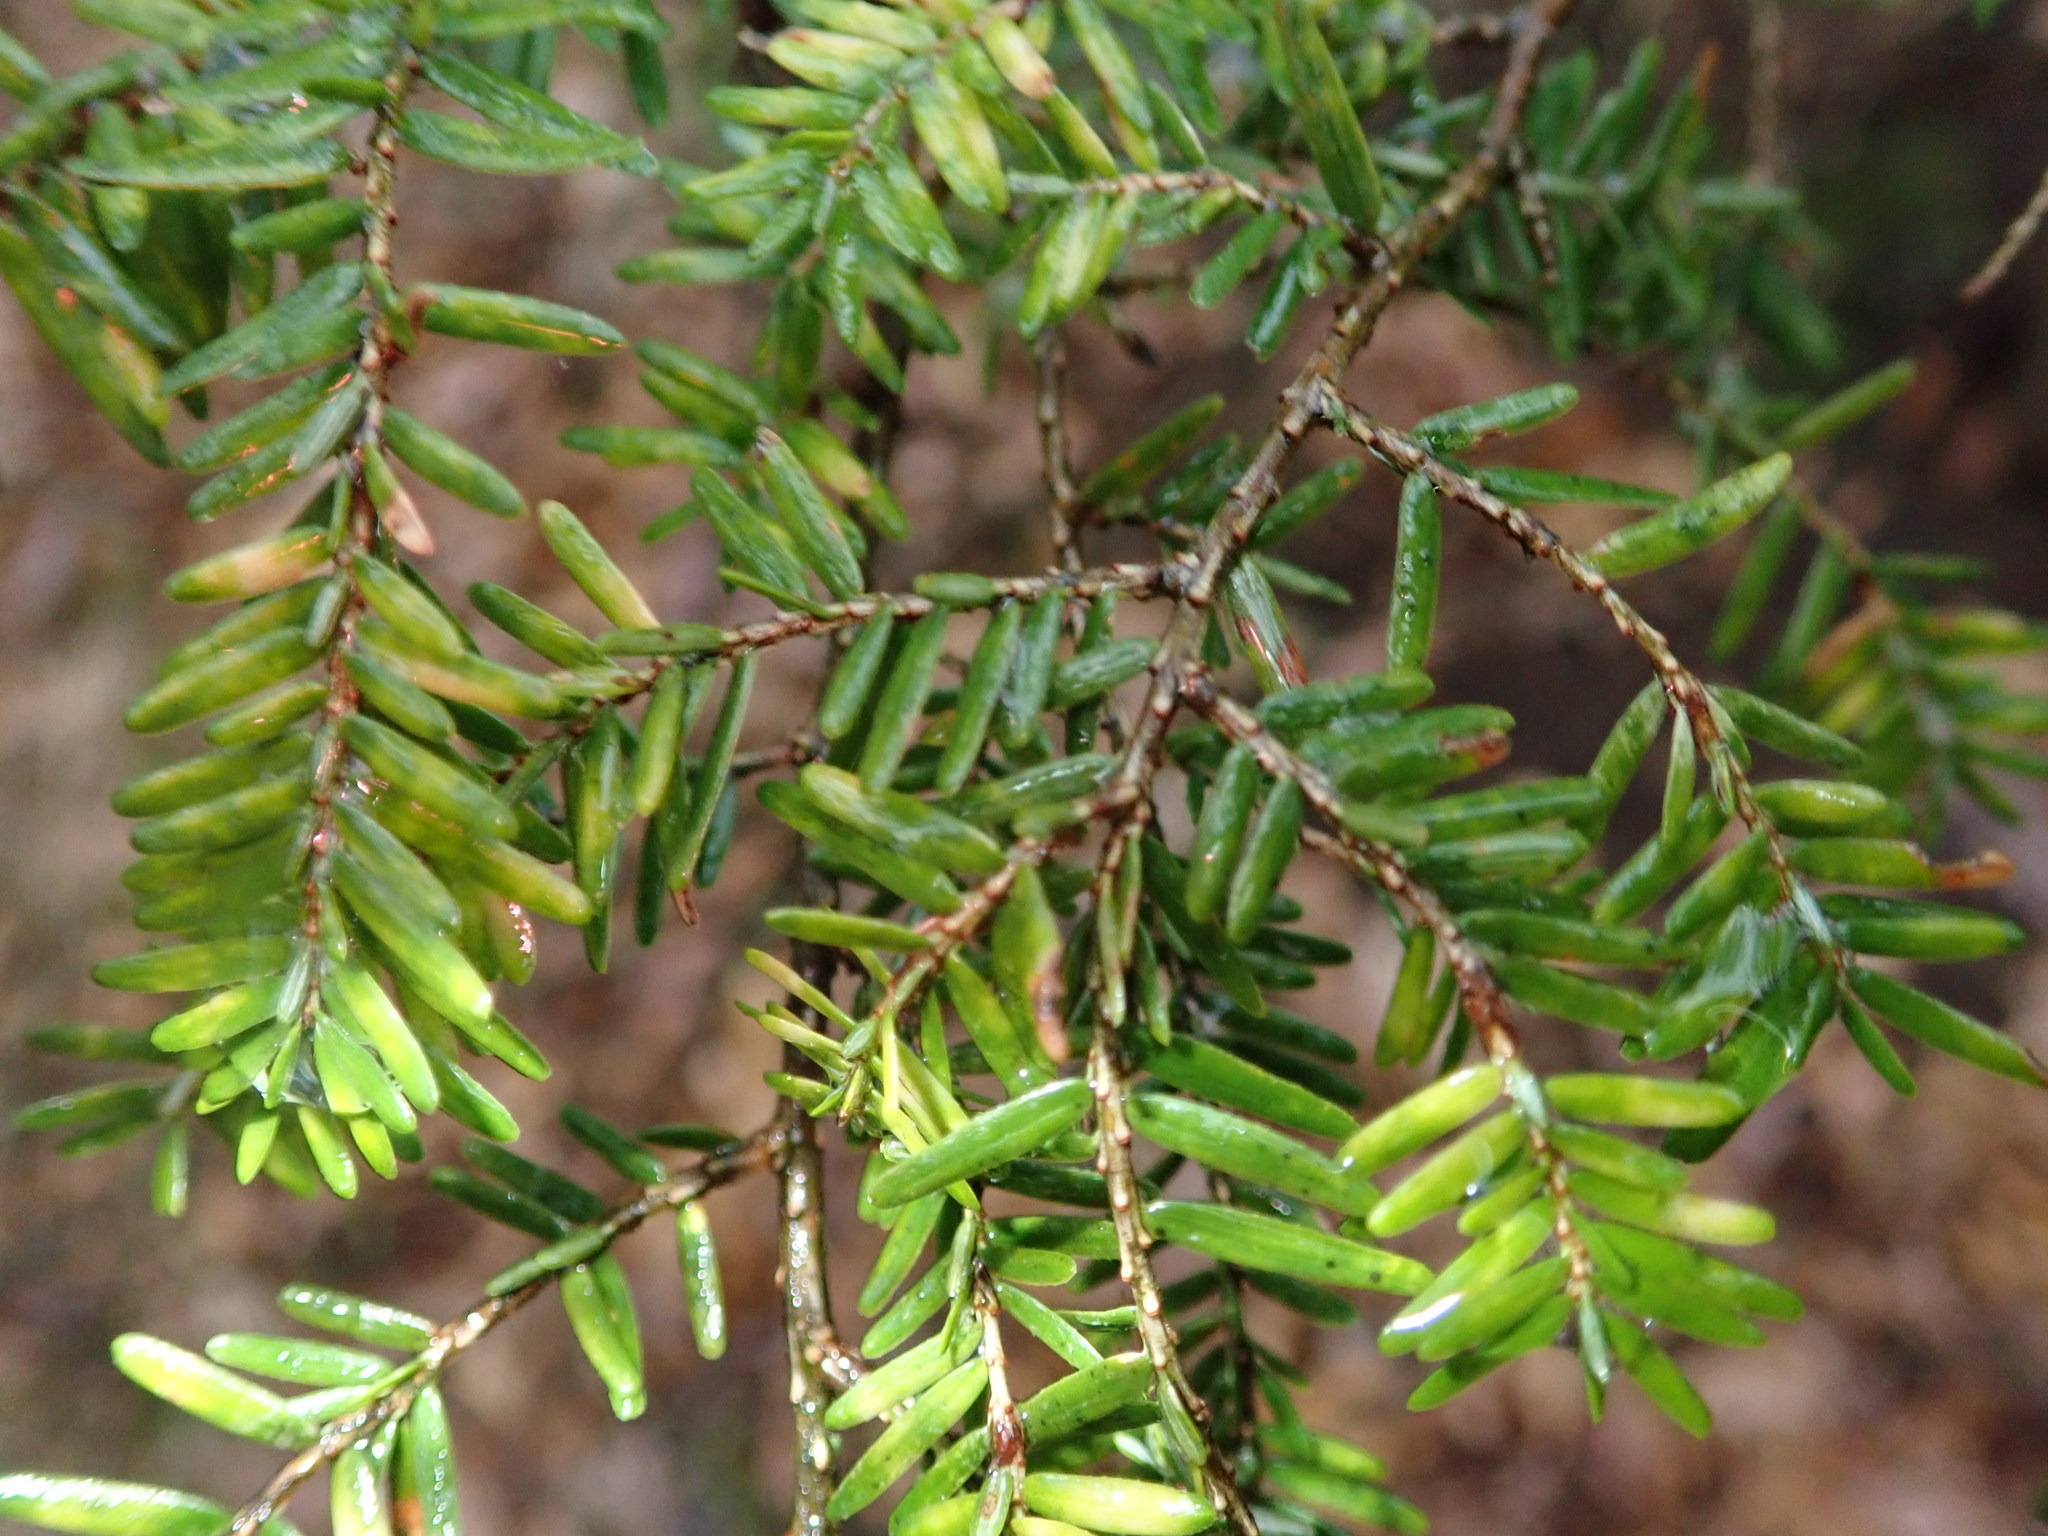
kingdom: Plantae
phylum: Tracheophyta
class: Pinopsida
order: Pinales
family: Pinaceae
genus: Tsuga
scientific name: Tsuga canadensis
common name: Eastern hemlock
